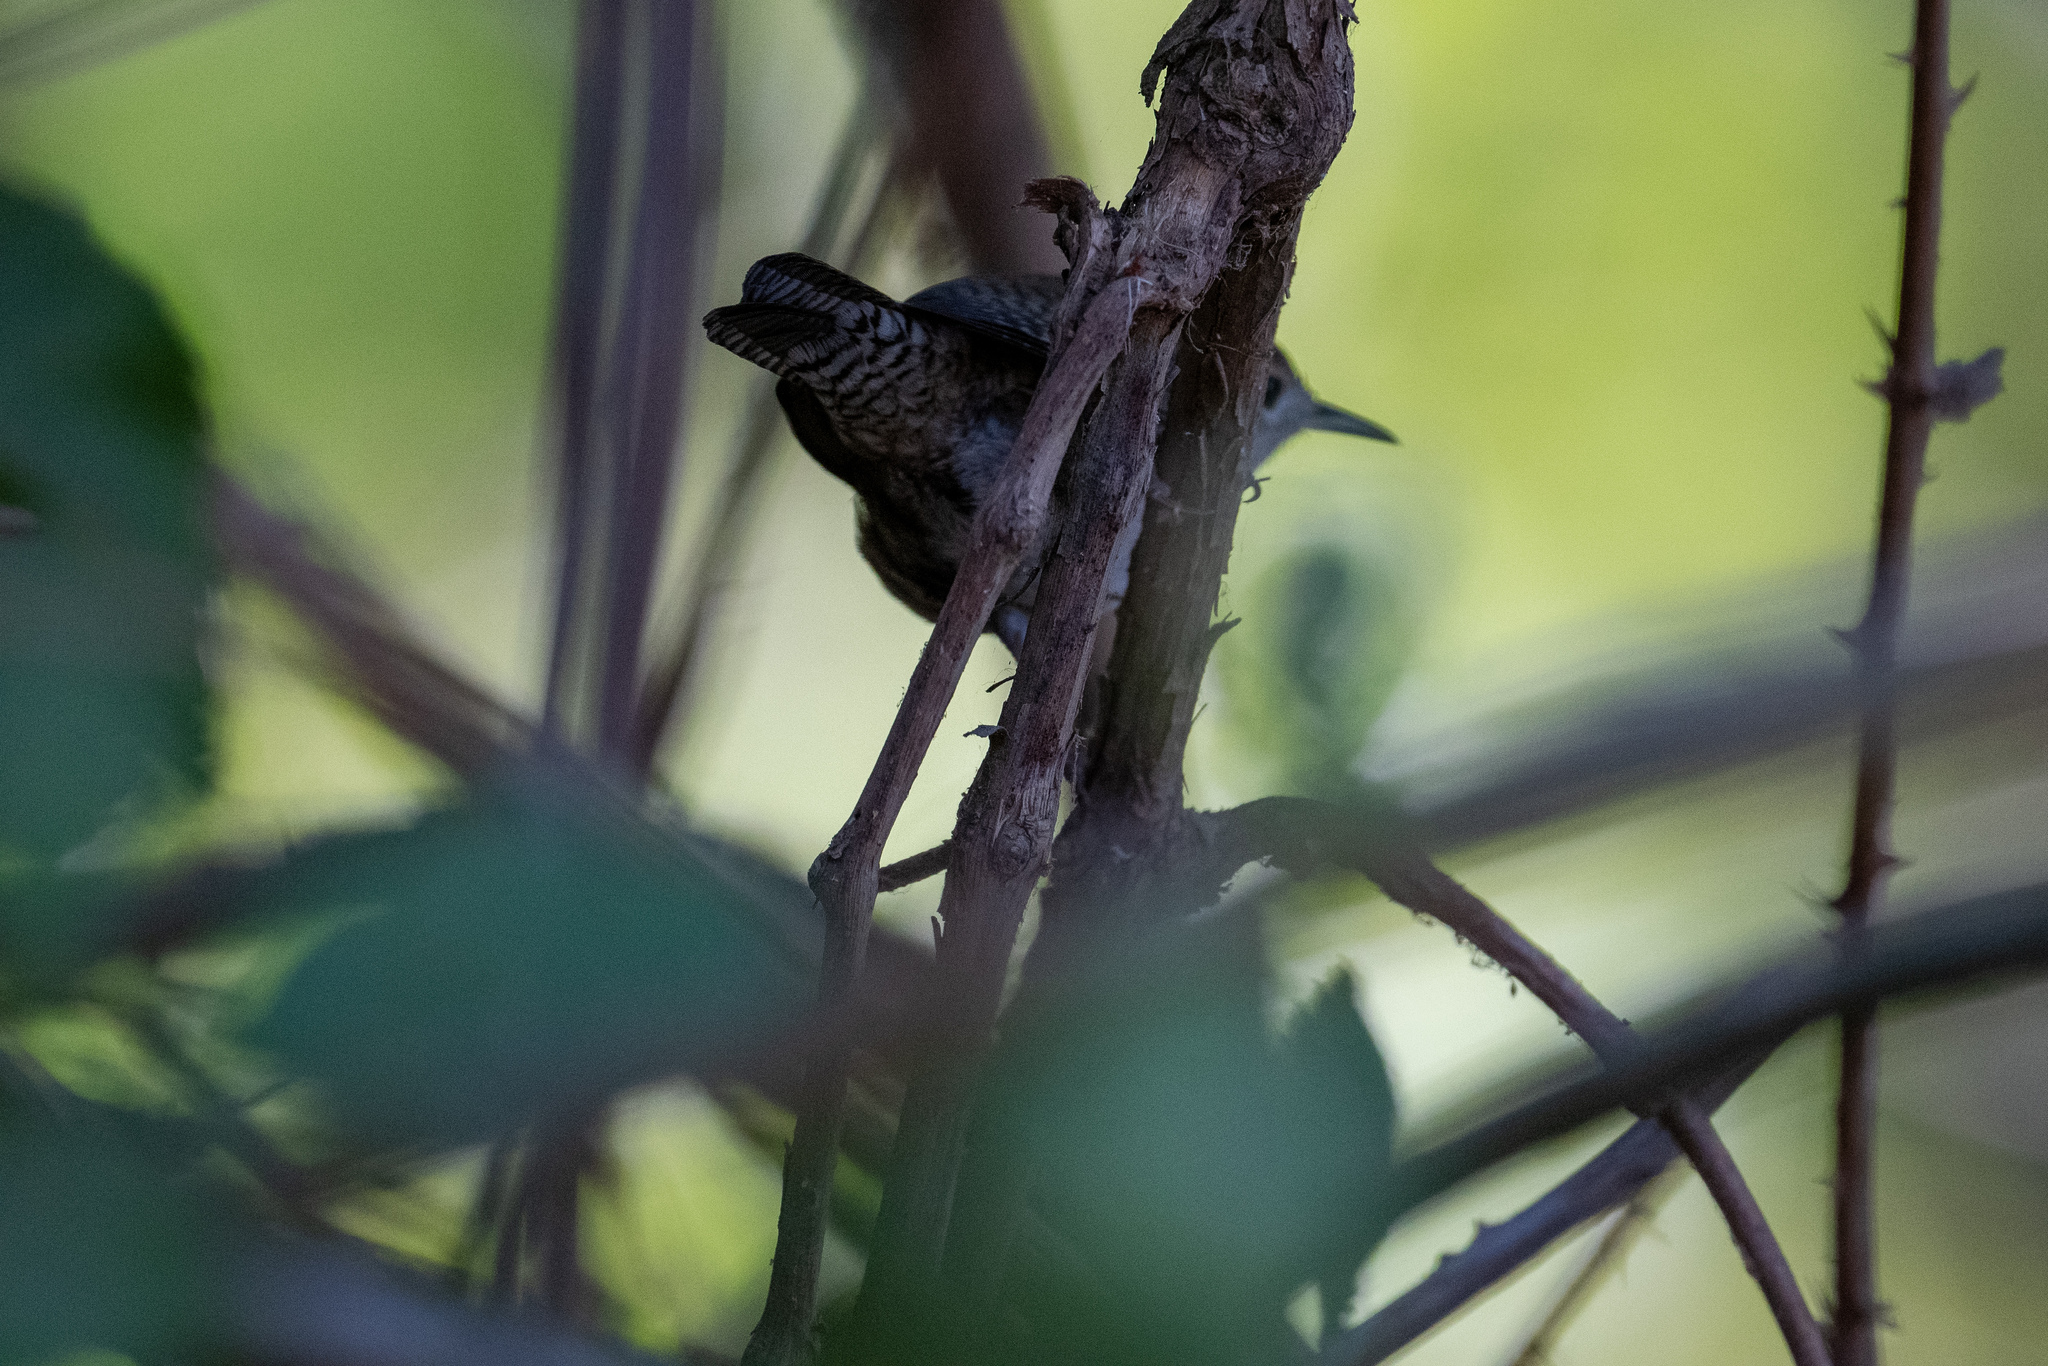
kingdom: Animalia
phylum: Chordata
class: Aves
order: Passeriformes
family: Troglodytidae
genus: Troglodytes
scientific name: Troglodytes aedon
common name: House wren
